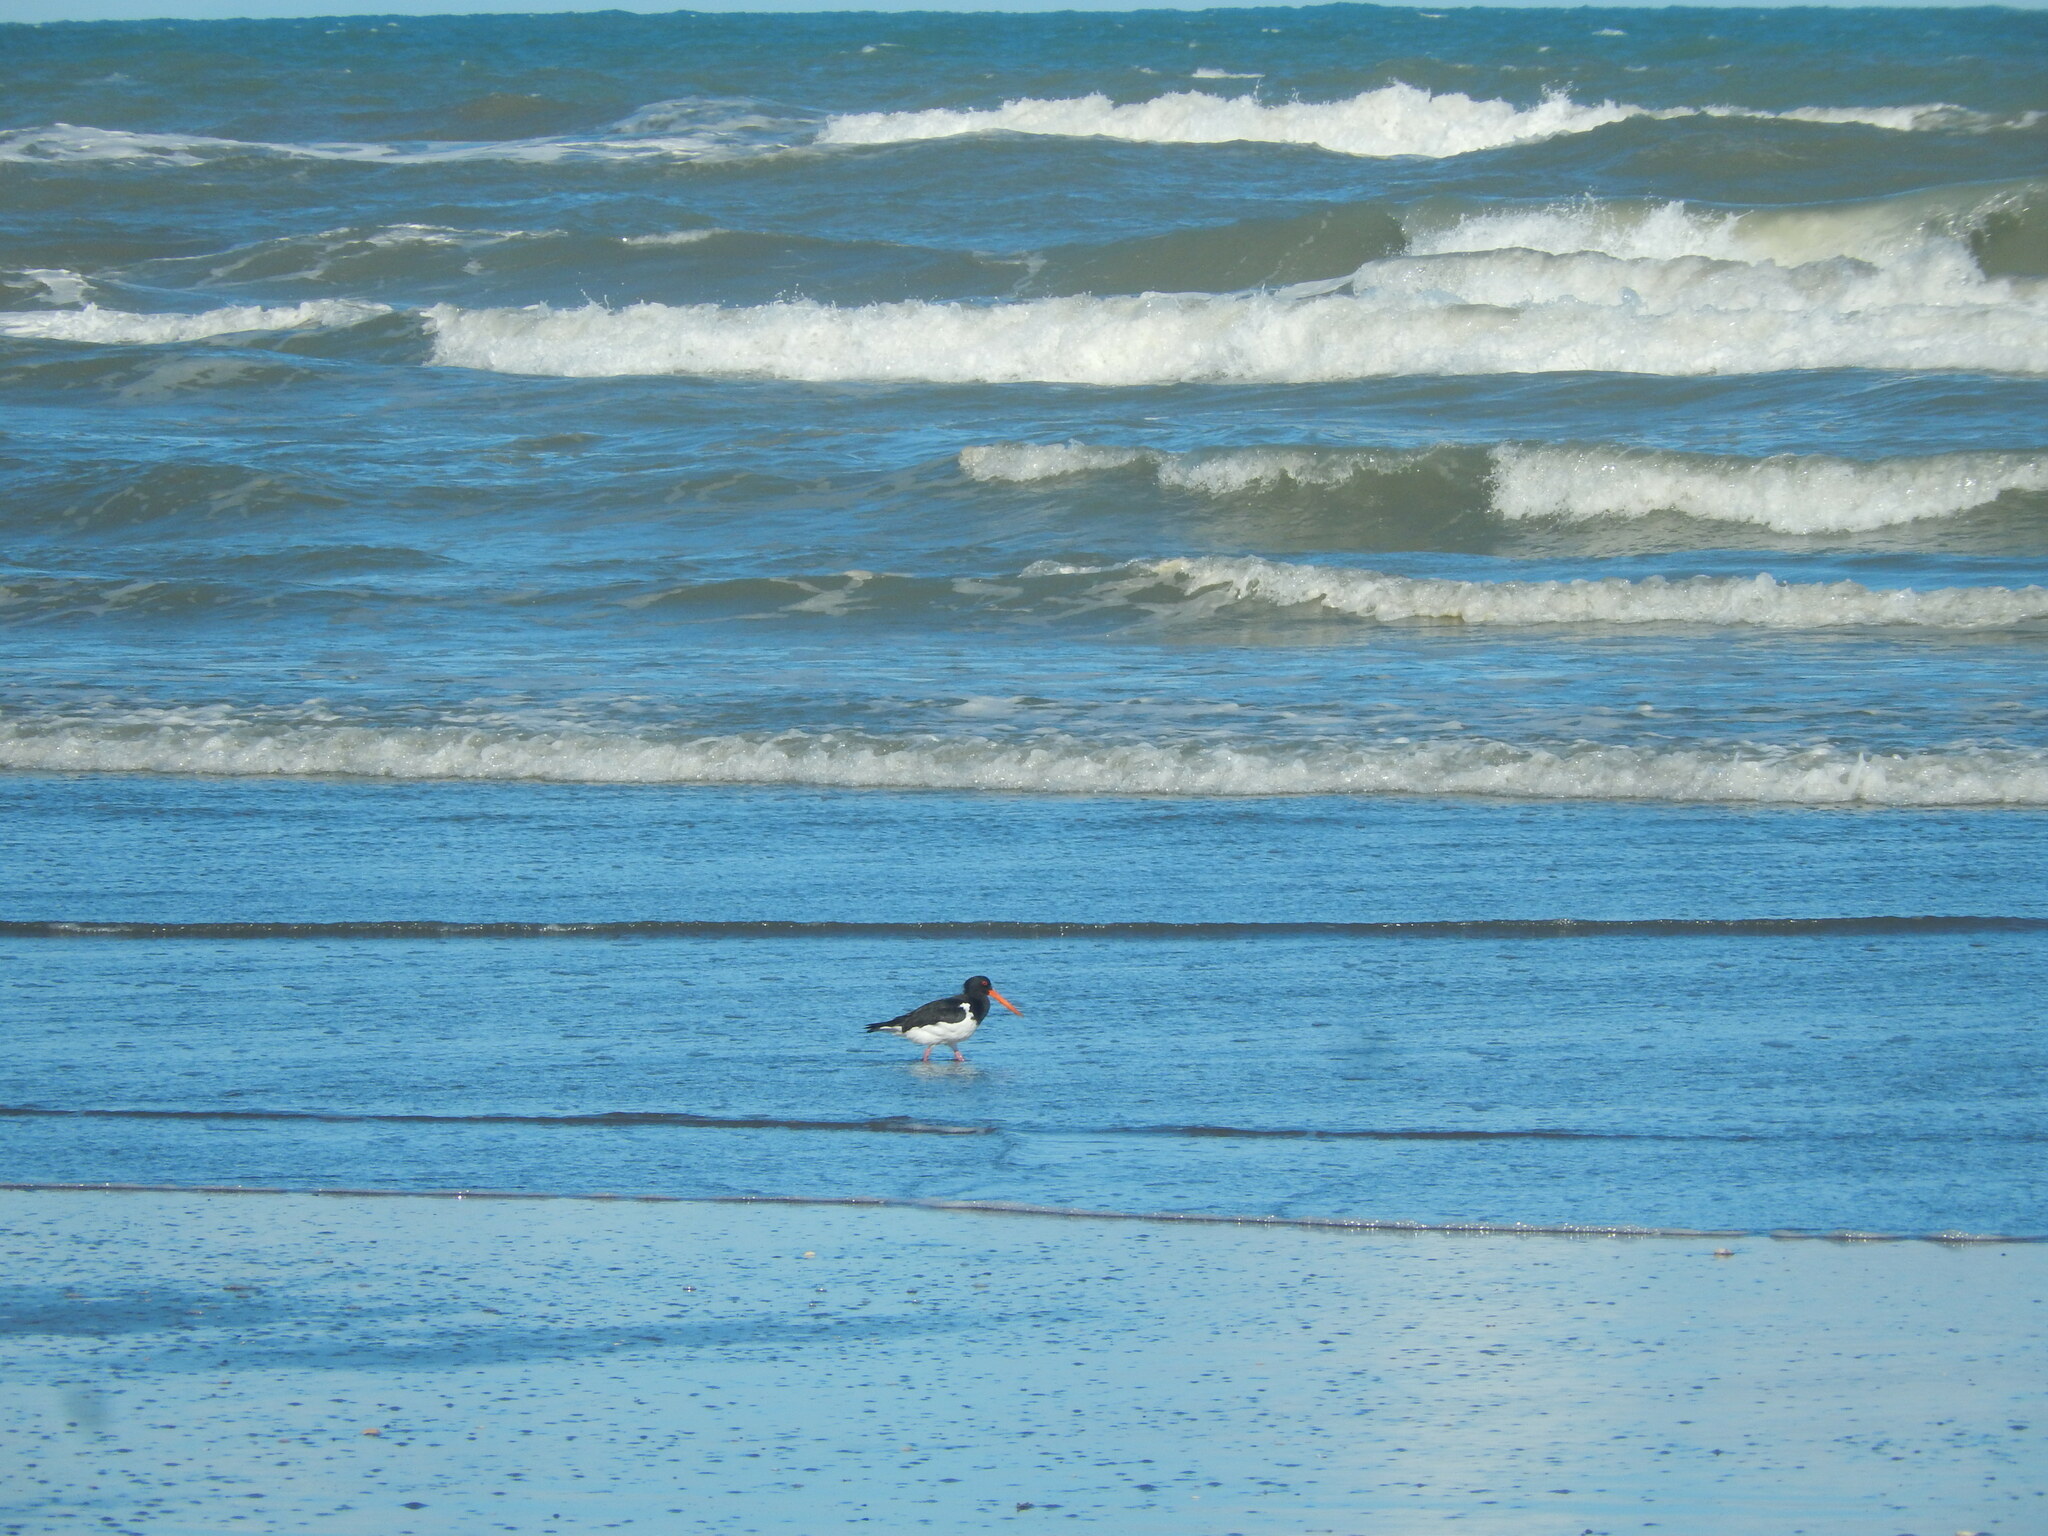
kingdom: Animalia
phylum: Chordata
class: Aves
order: Charadriiformes
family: Haematopodidae
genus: Haematopus
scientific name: Haematopus finschi
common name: South island oystercatcher
